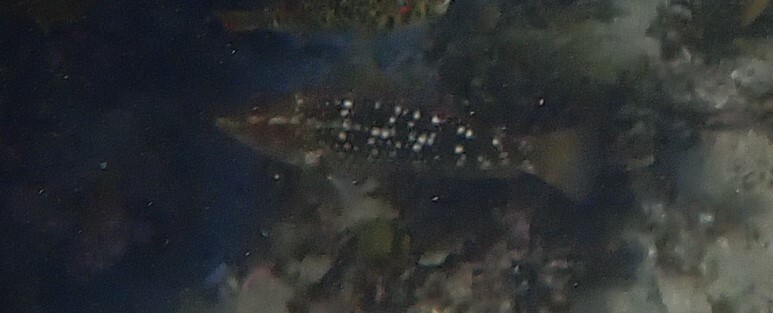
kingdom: Animalia
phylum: Chordata
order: Perciformes
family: Labridae
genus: Notolabrus
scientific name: Notolabrus gymnogenis
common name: Crimson banded wrasse
